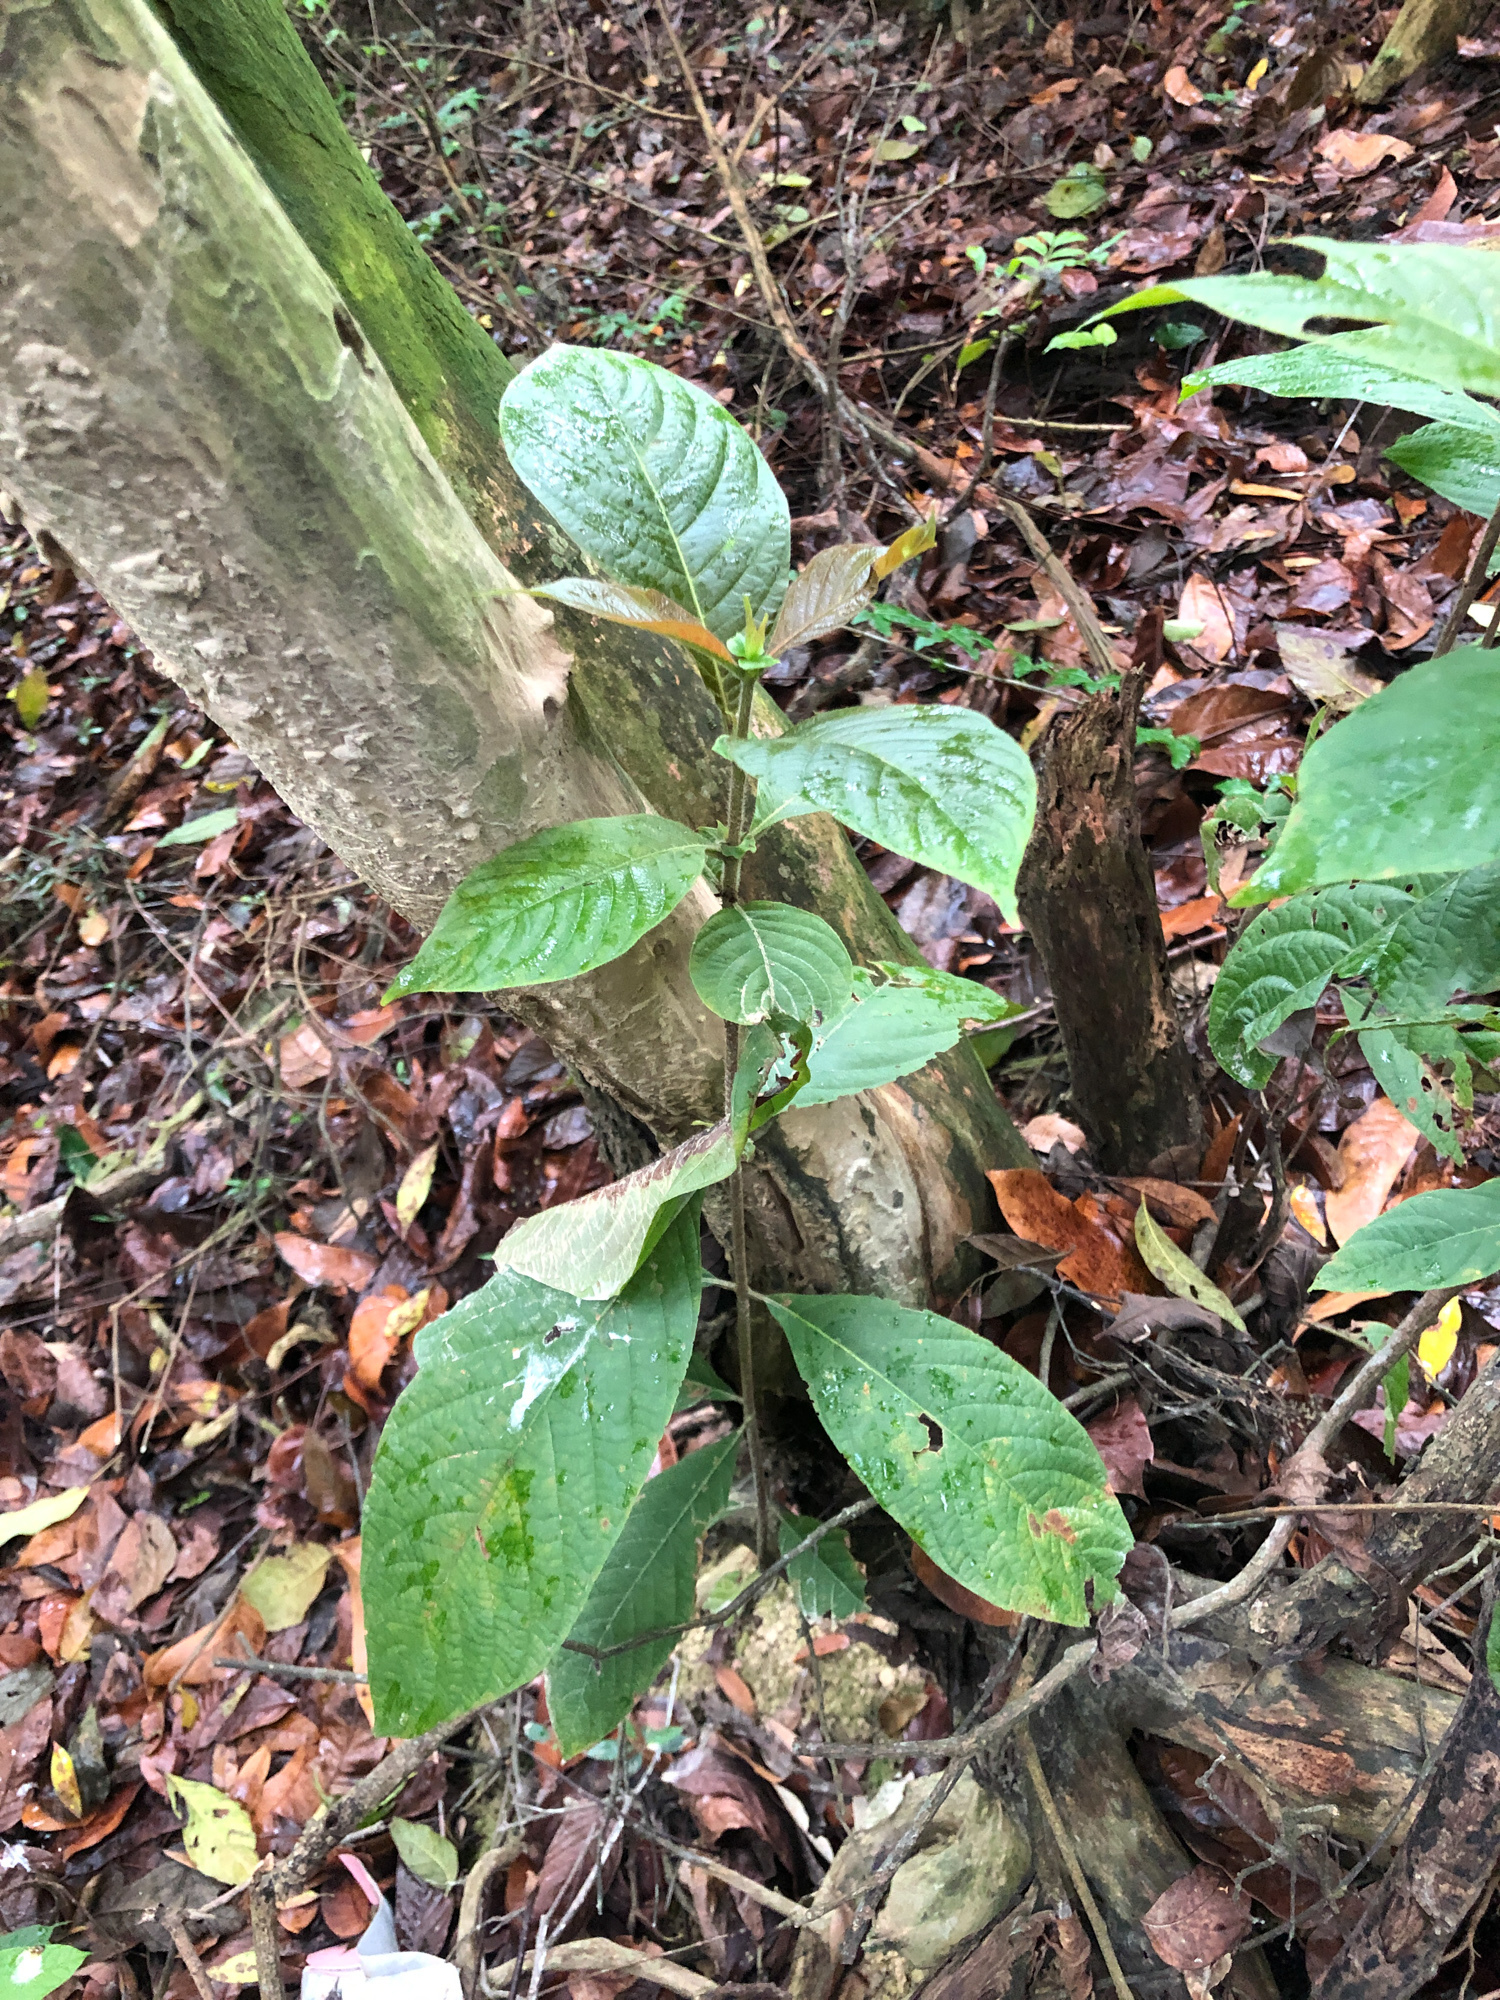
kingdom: Plantae
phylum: Tracheophyta
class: Magnoliopsida
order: Gentianales
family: Rubiaceae
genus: Wendlandia
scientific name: Wendlandia uvariifolia
